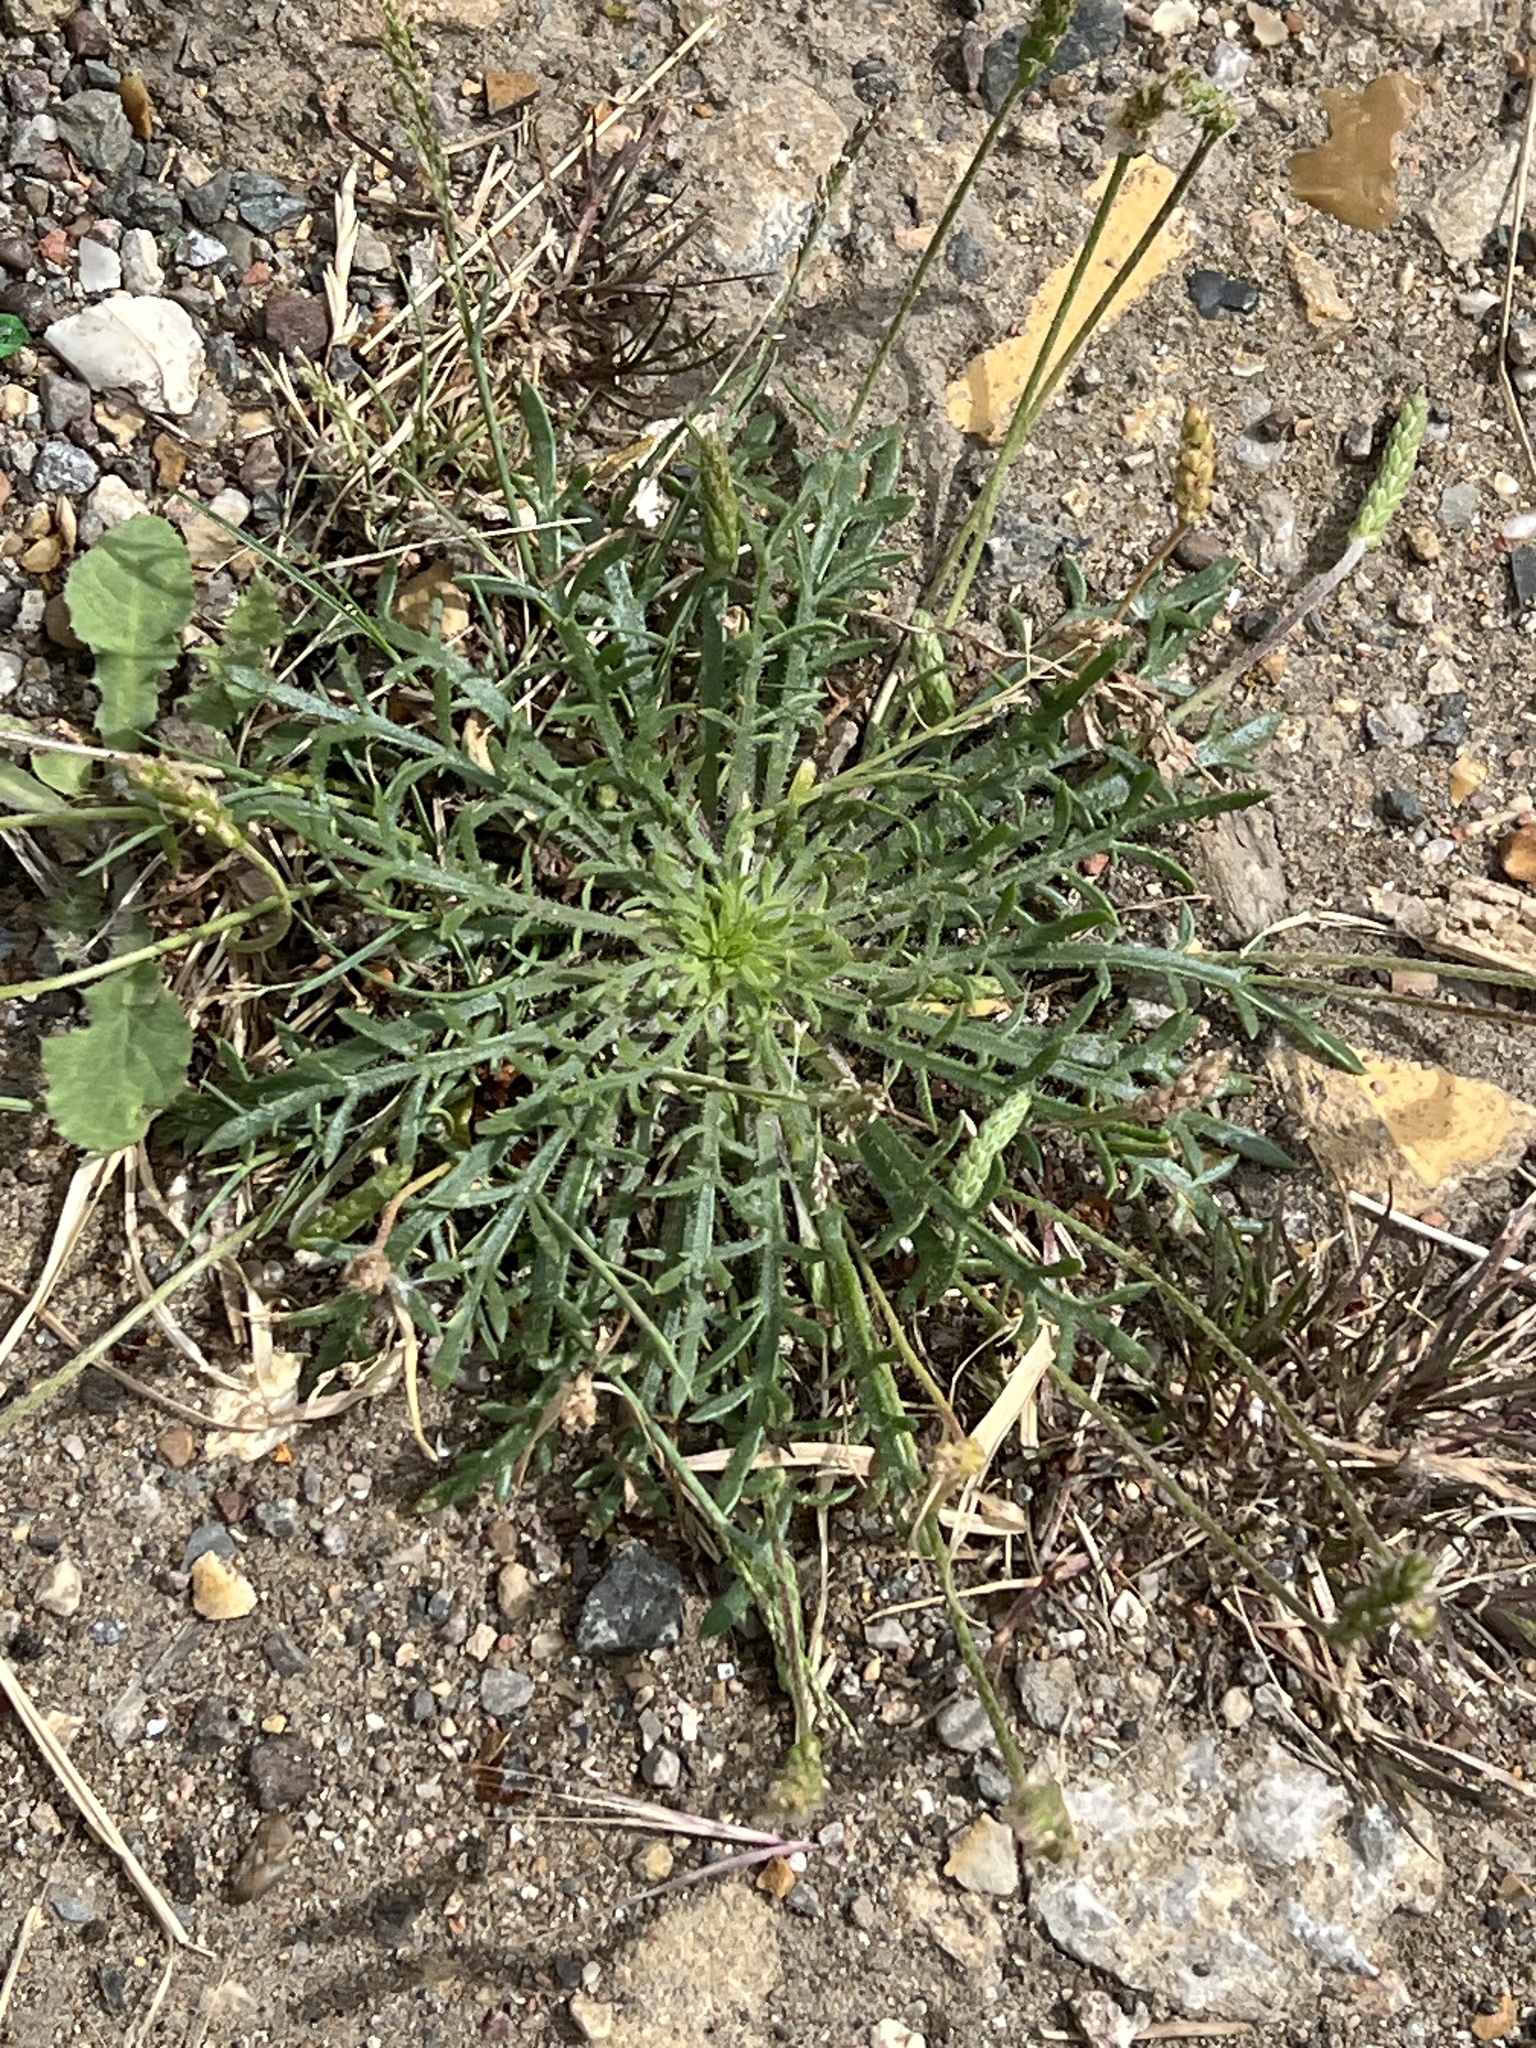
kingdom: Plantae
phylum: Tracheophyta
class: Magnoliopsida
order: Lamiales
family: Plantaginaceae
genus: Plantago
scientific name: Plantago coronopus
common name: Buck's-horn plantain
